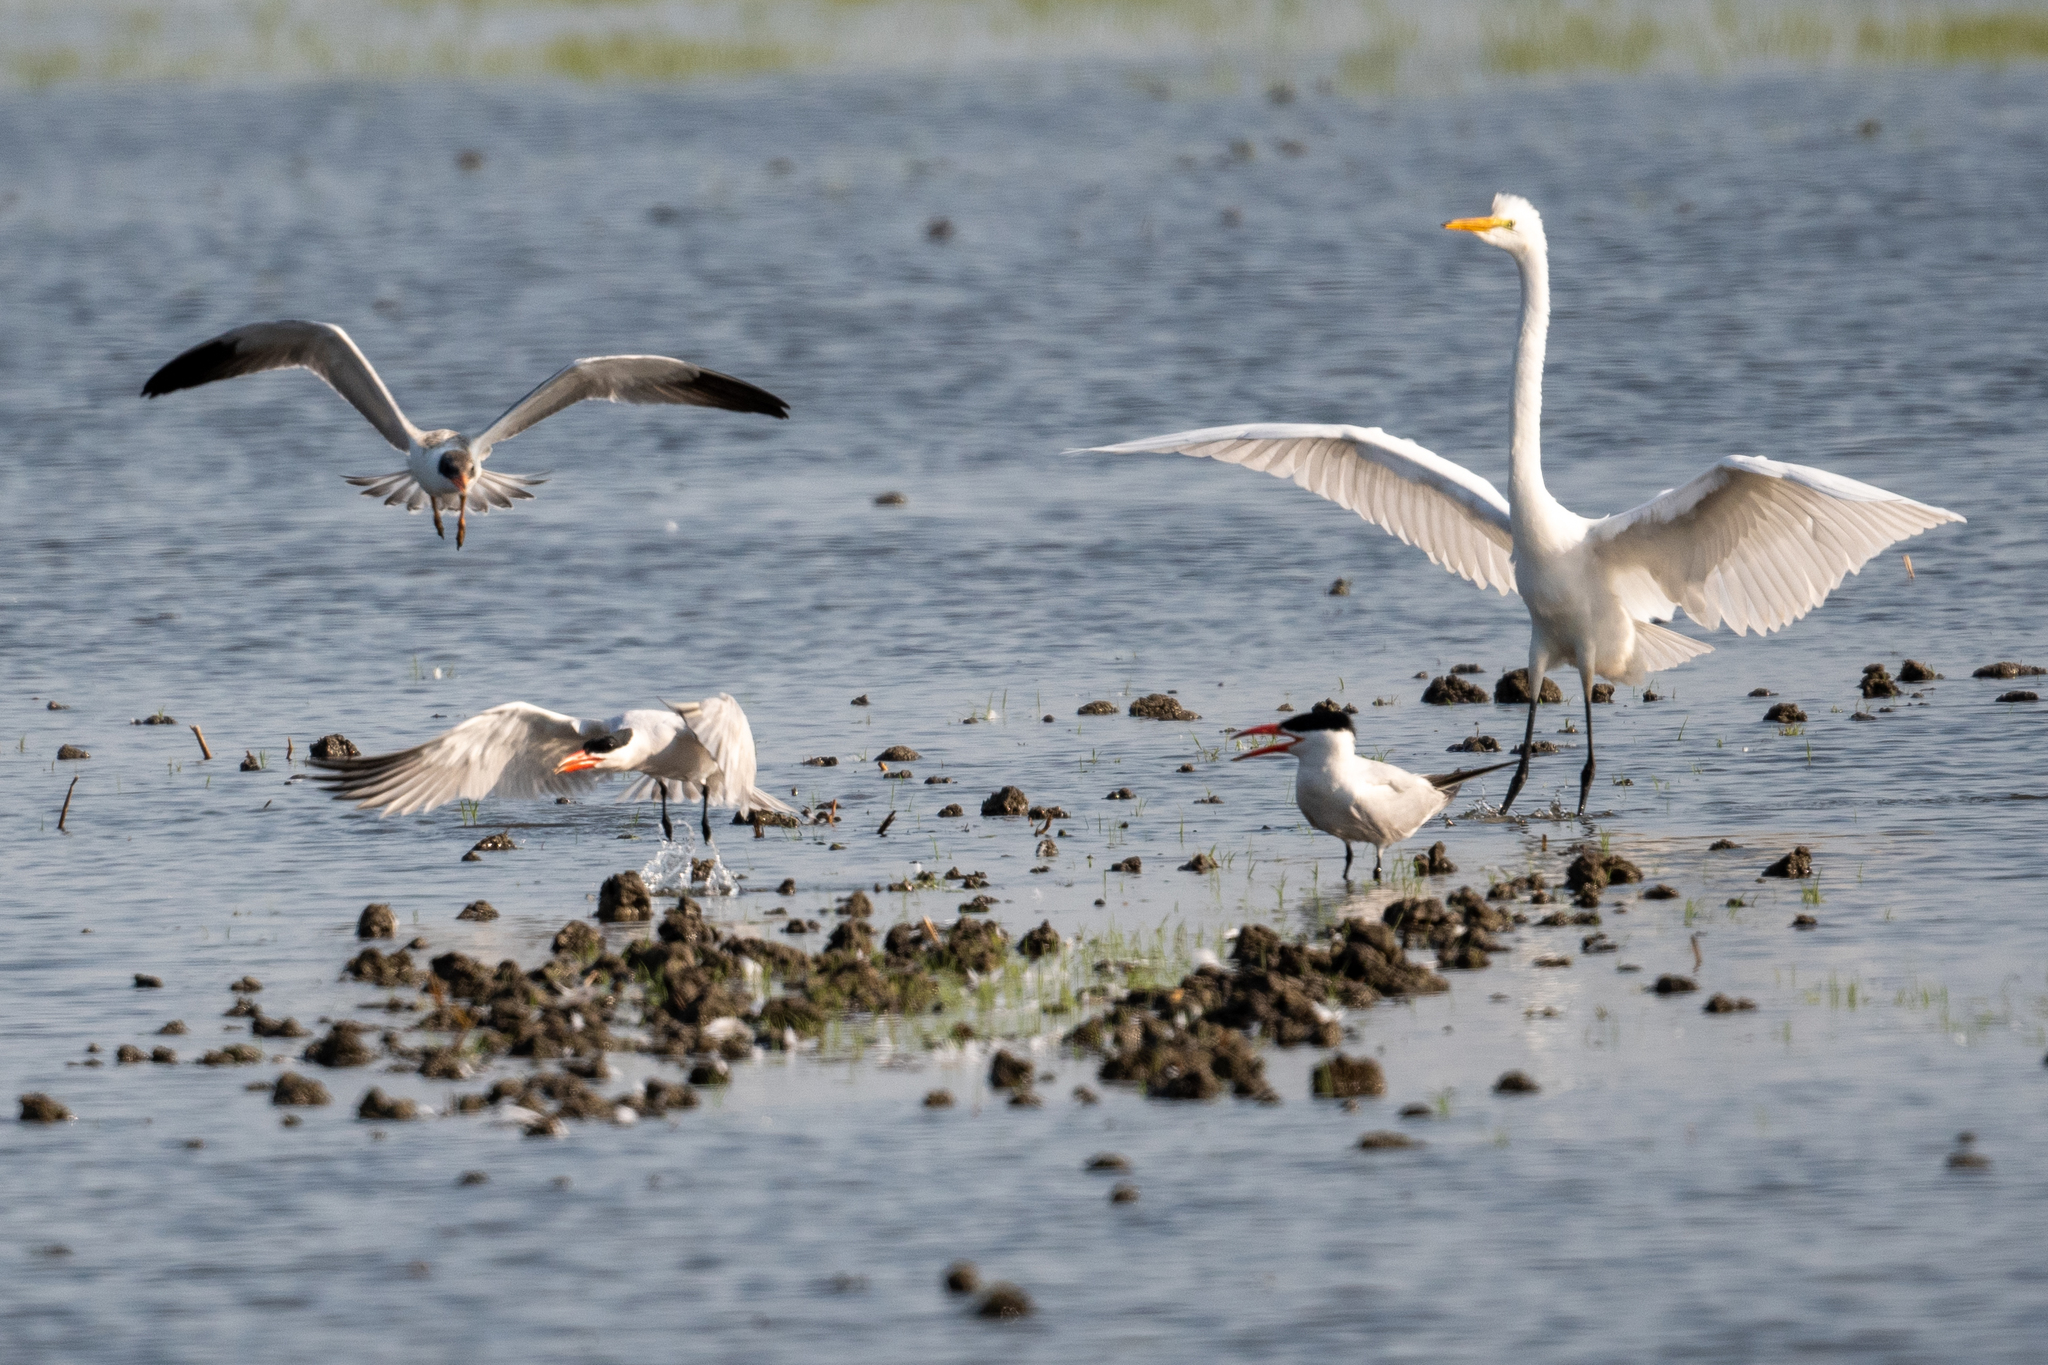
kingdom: Animalia
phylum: Chordata
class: Aves
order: Pelecaniformes
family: Ardeidae
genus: Ardea
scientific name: Ardea alba
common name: Great egret
